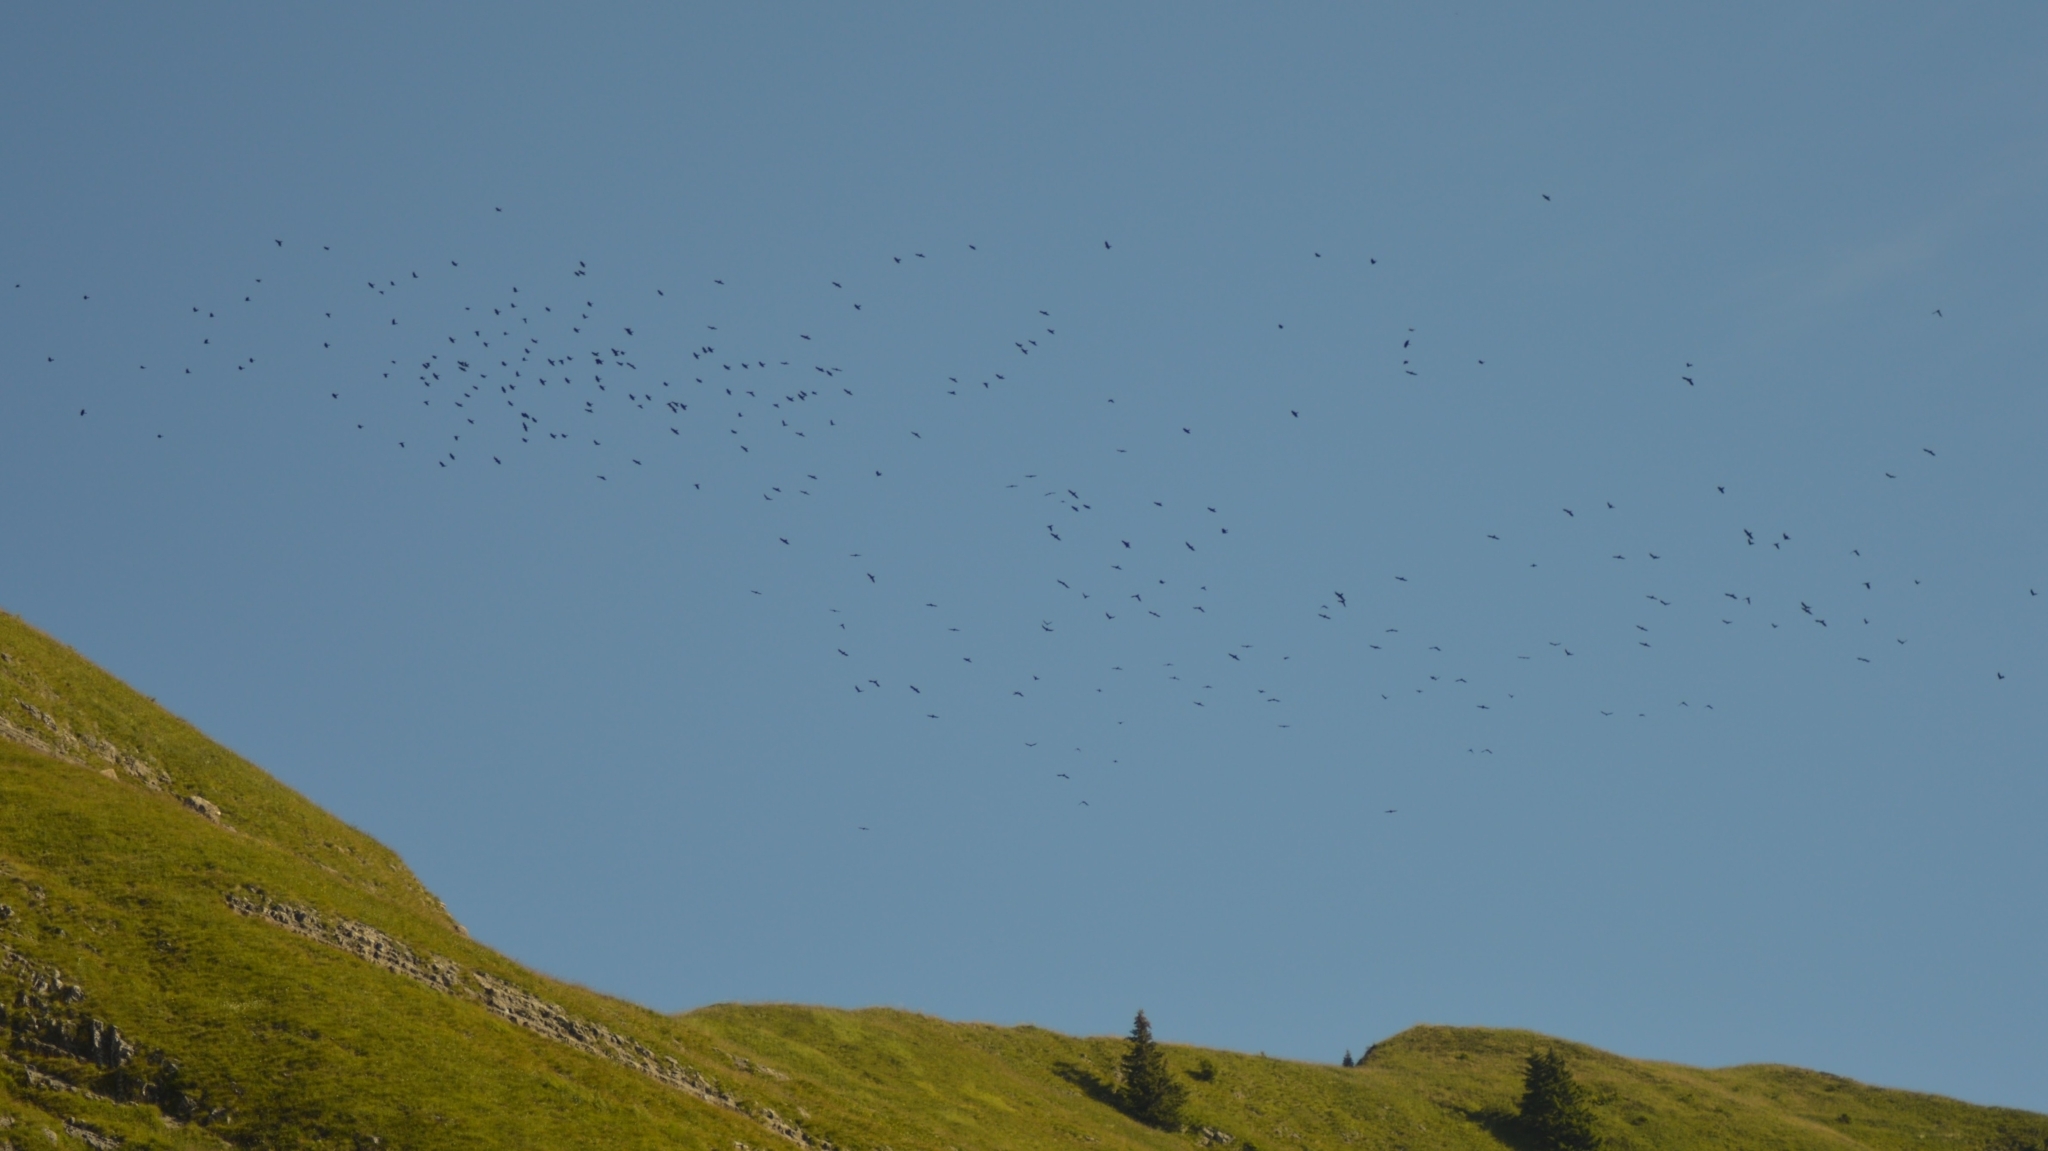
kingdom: Animalia
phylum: Chordata
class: Aves
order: Passeriformes
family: Corvidae
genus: Pyrrhocorax
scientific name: Pyrrhocorax graculus
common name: Alpine chough
